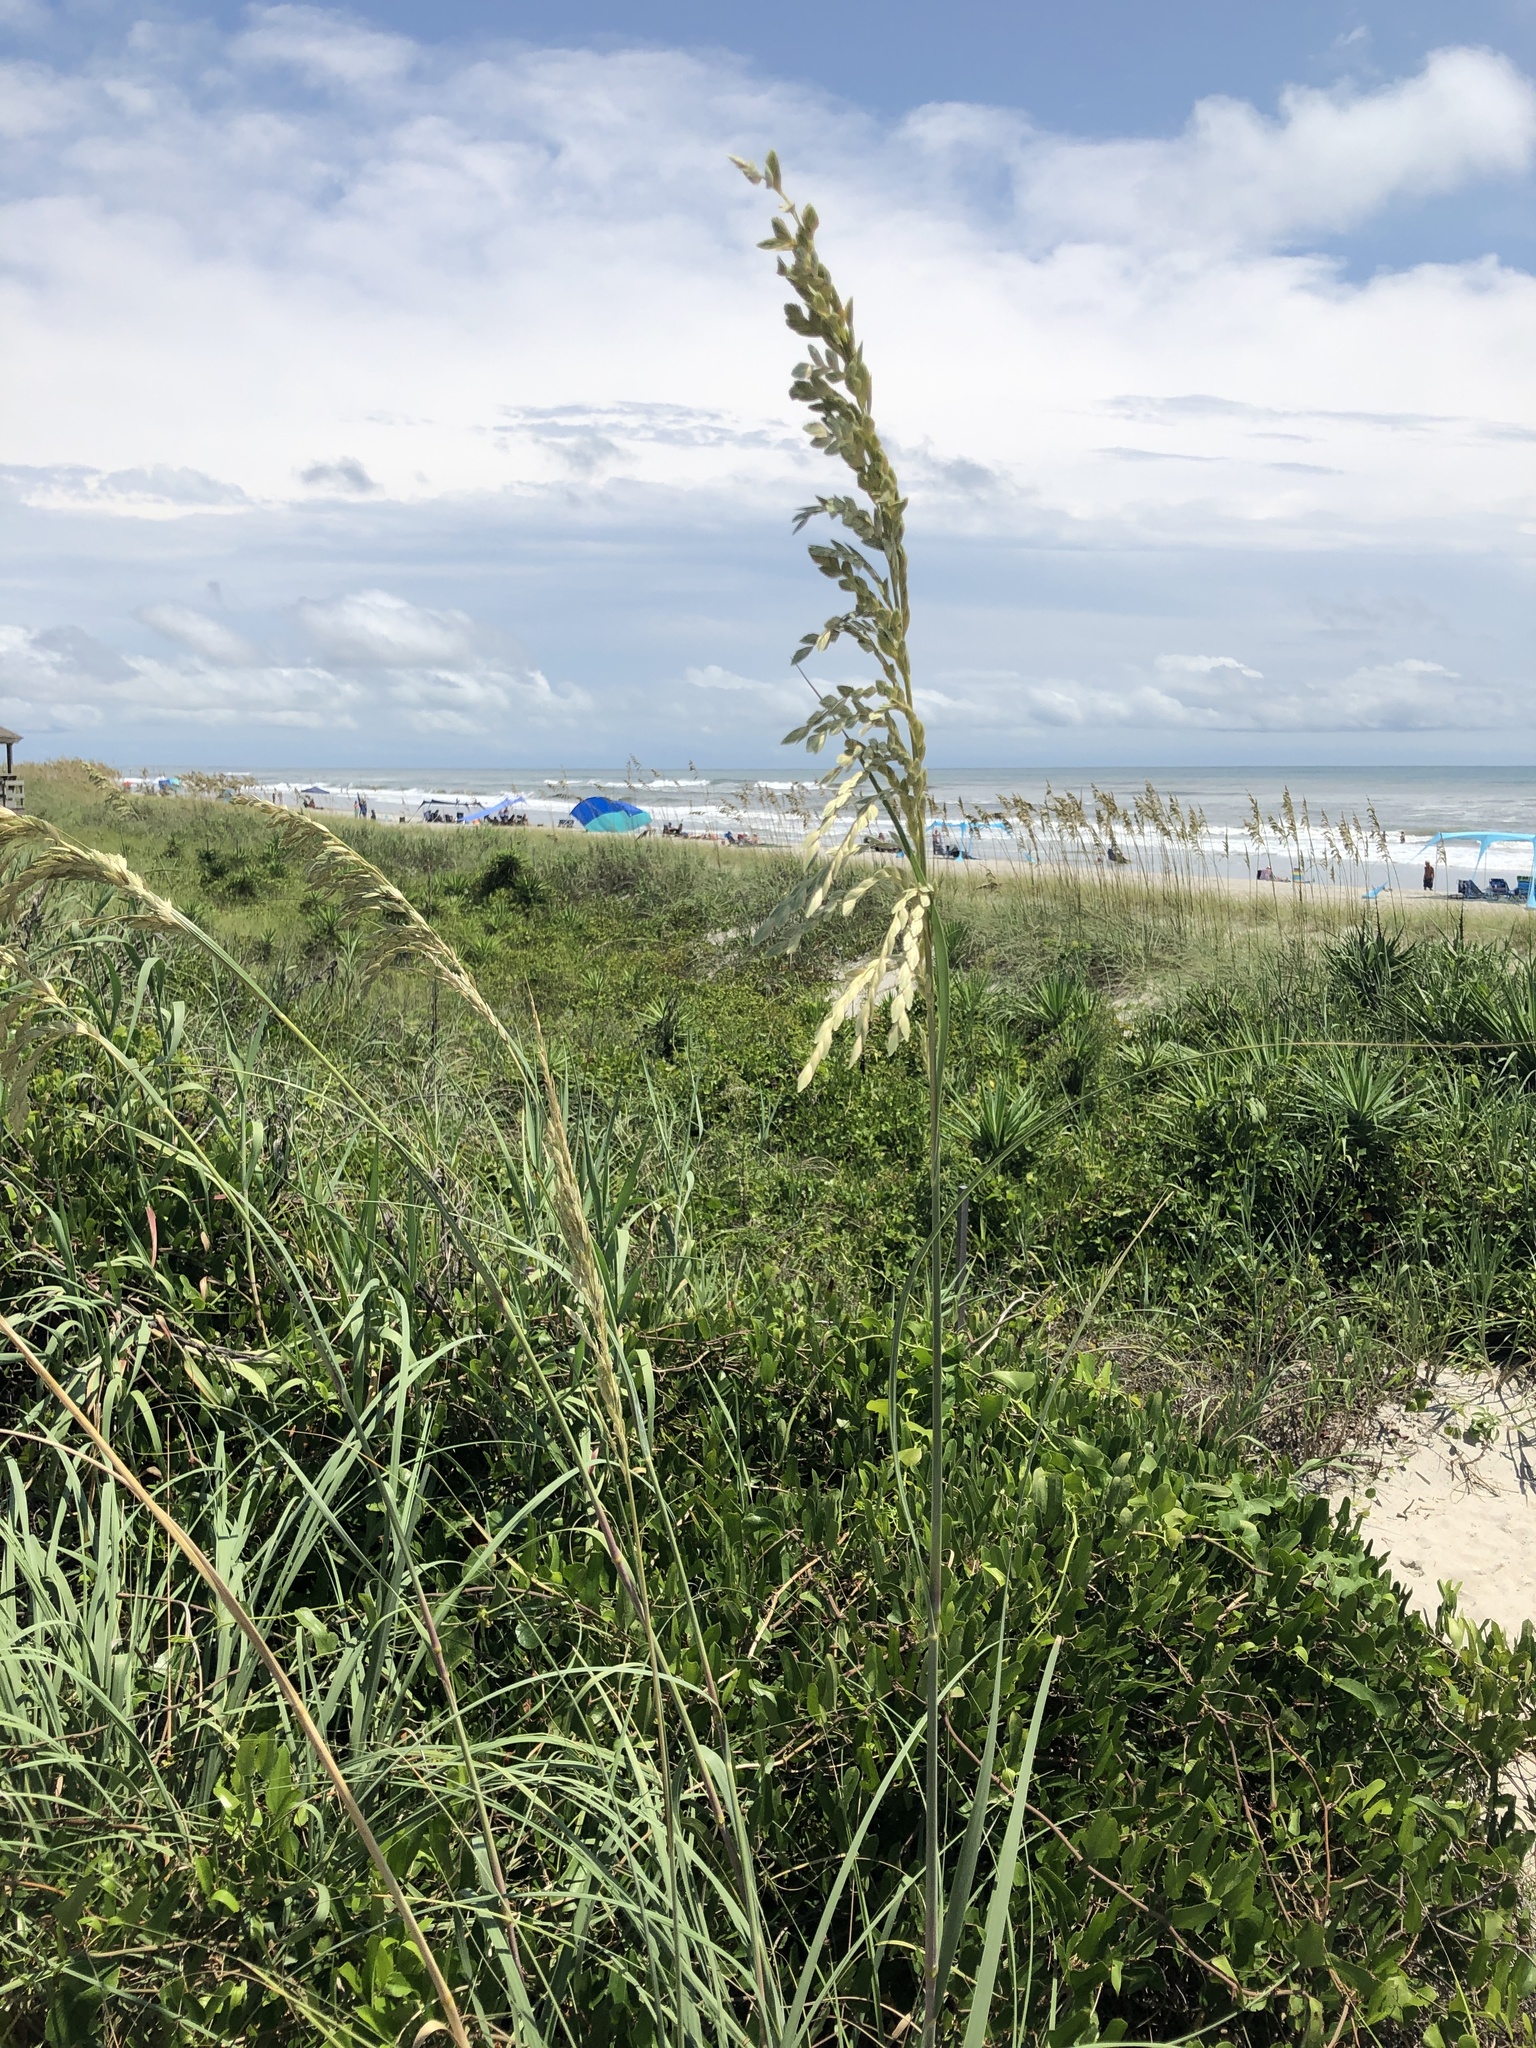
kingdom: Plantae
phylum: Tracheophyta
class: Liliopsida
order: Poales
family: Poaceae
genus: Uniola
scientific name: Uniola paniculata
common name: Seaside-oats
